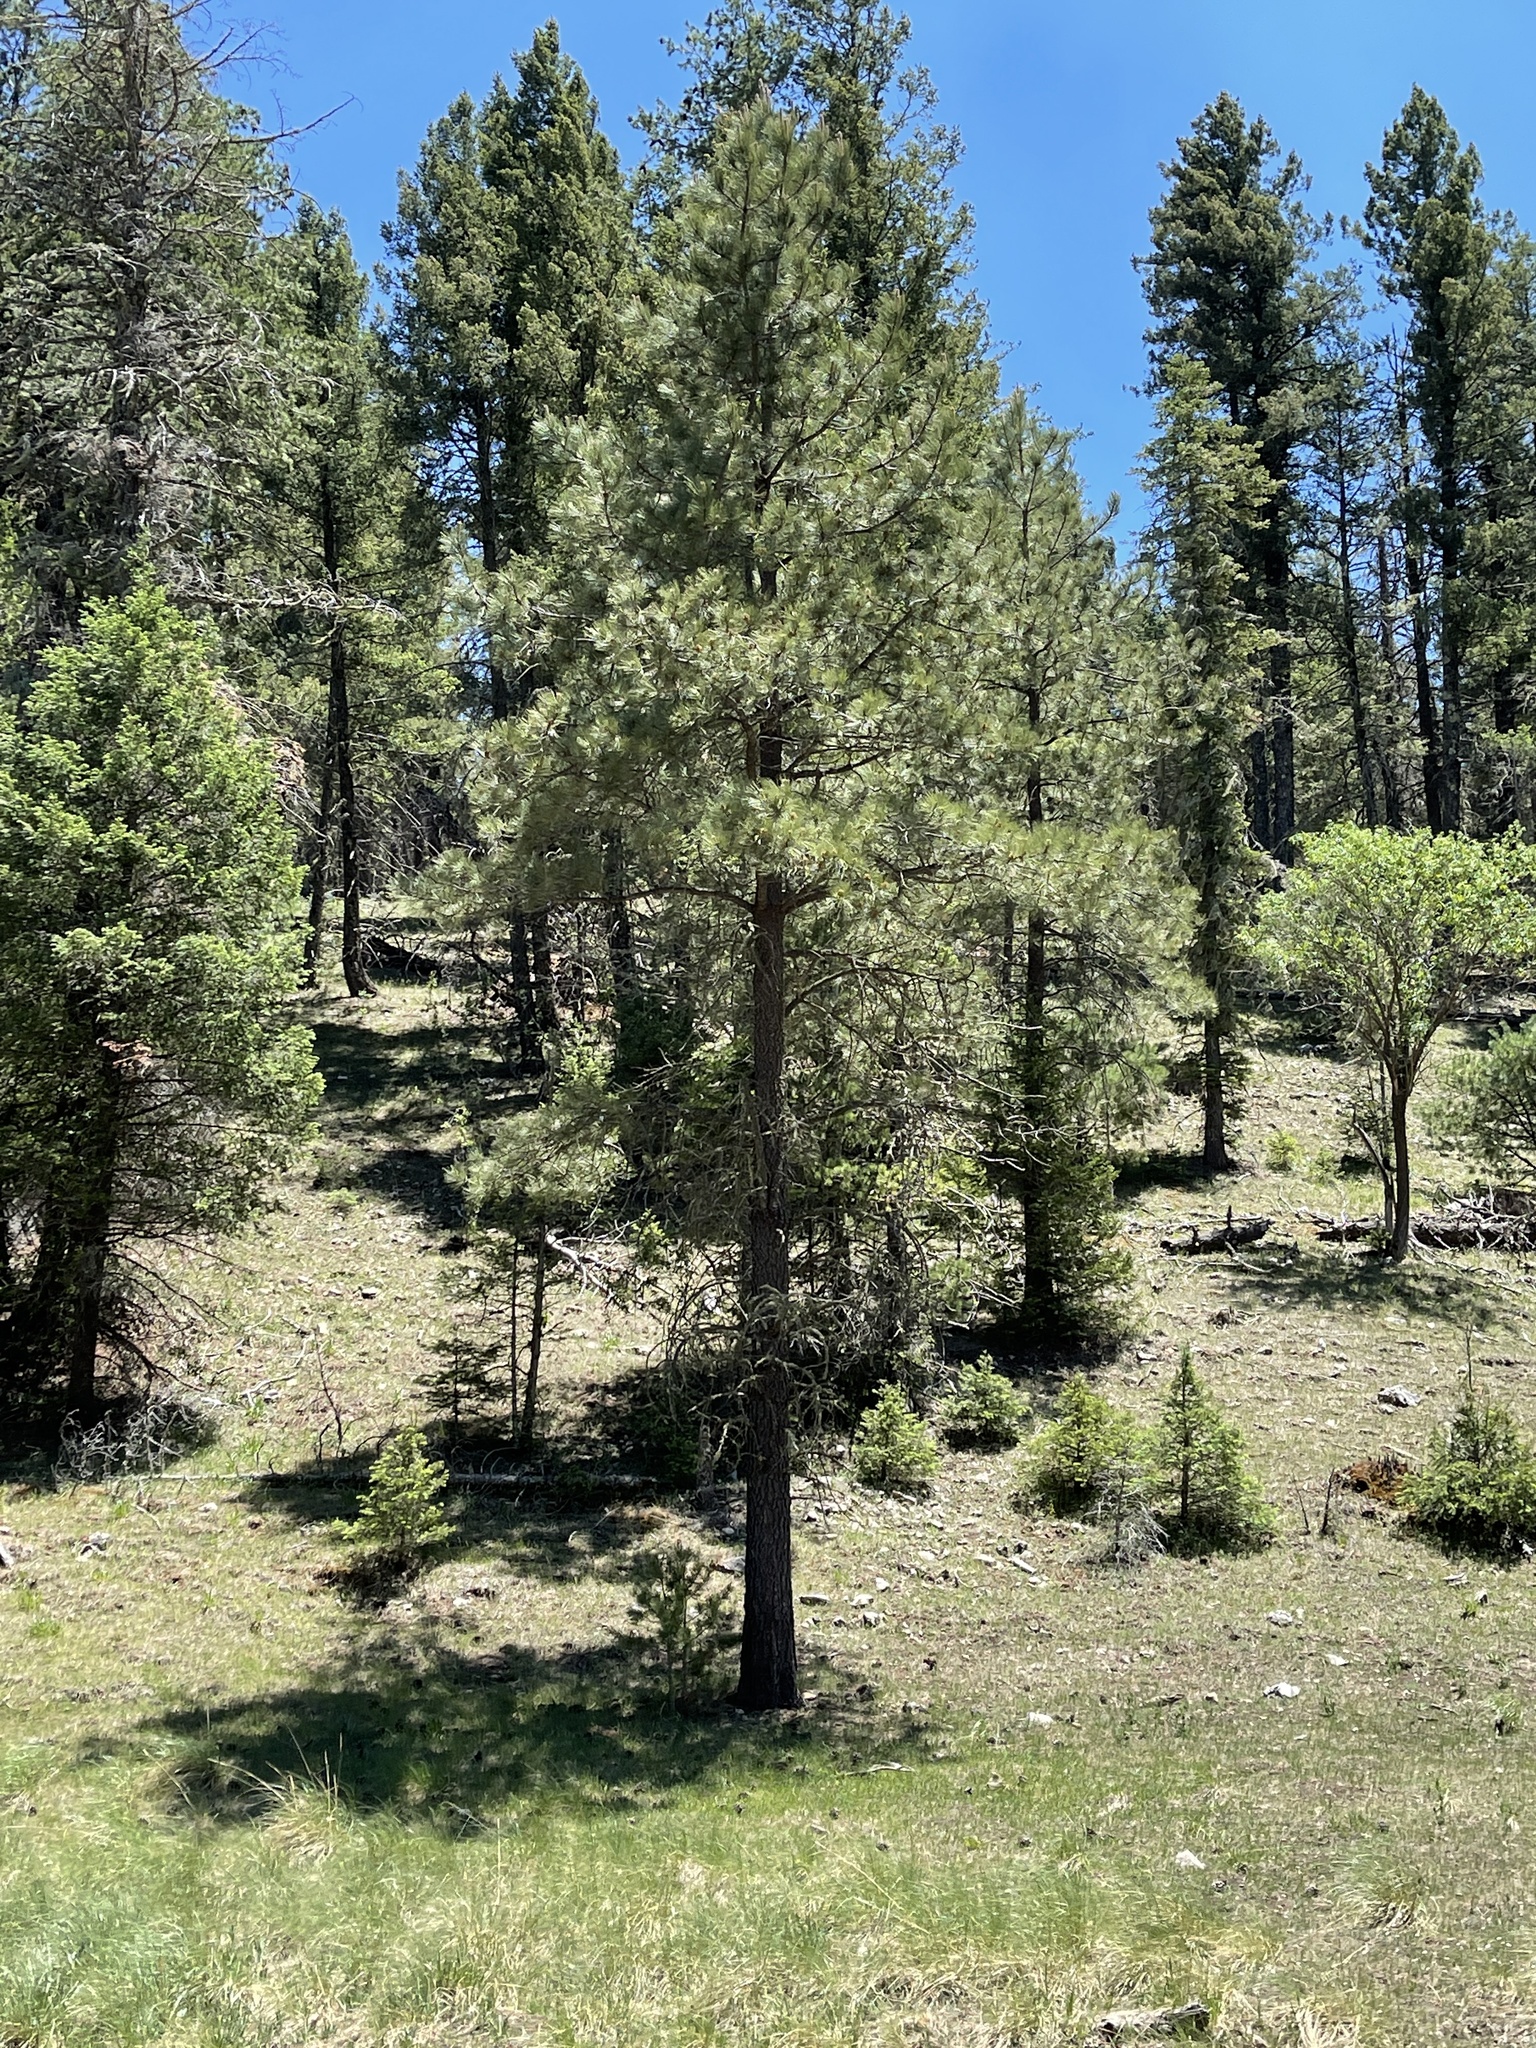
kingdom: Plantae
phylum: Tracheophyta
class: Pinopsida
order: Pinales
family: Pinaceae
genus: Pinus
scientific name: Pinus ponderosa
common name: Western yellow-pine
